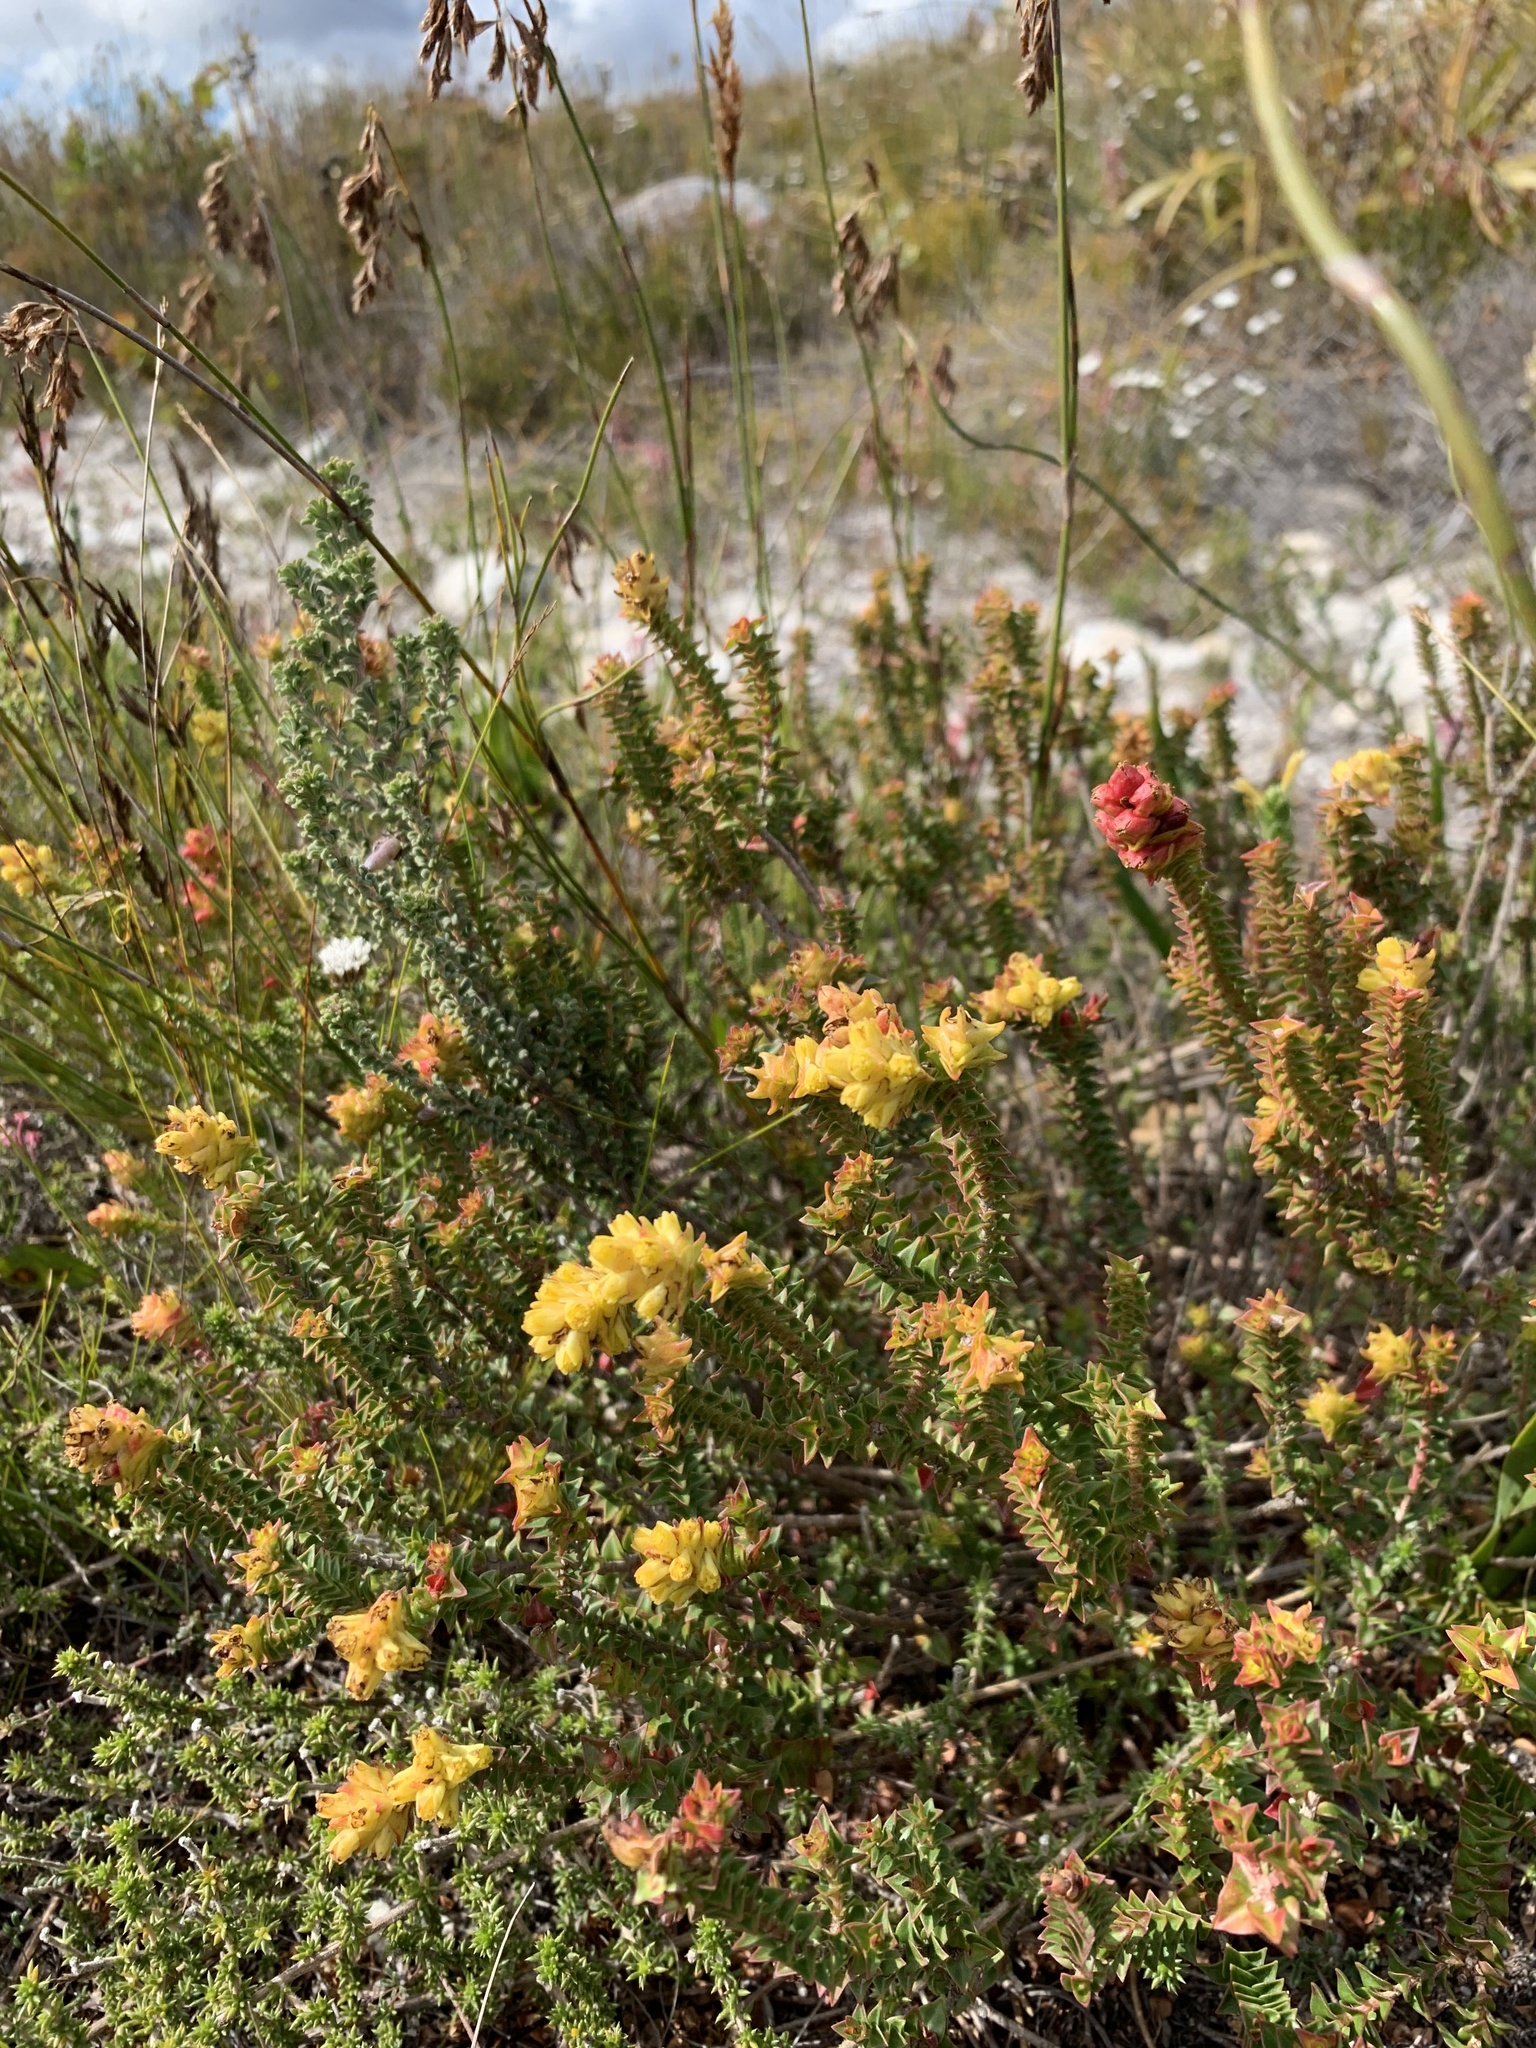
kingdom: Plantae
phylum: Tracheophyta
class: Magnoliopsida
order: Myrtales
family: Penaeaceae
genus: Penaea
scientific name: Penaea mucronata
